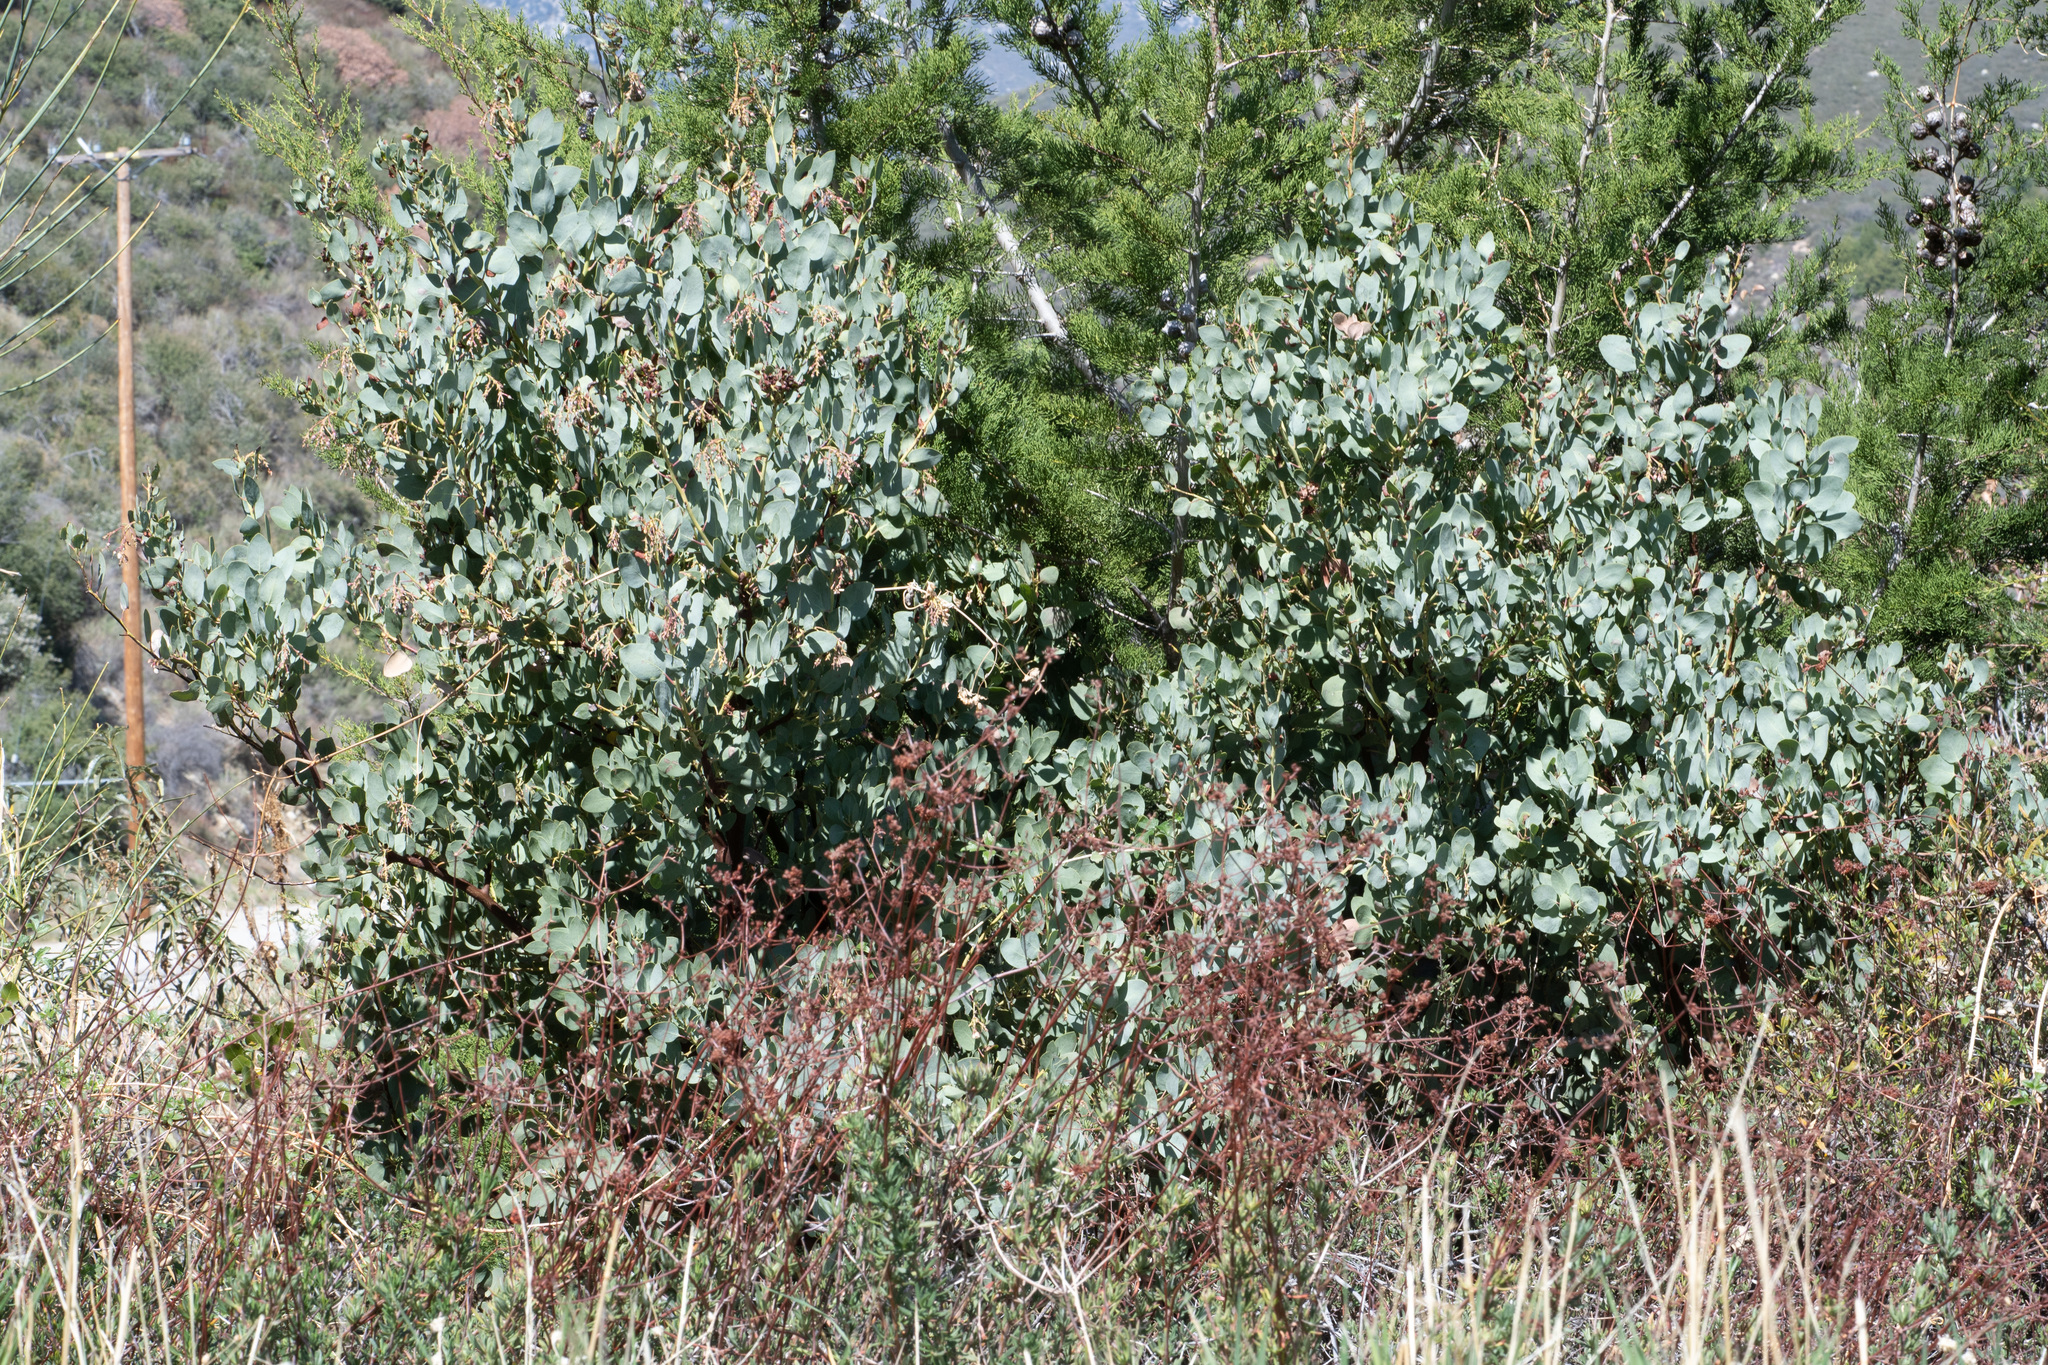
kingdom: Plantae
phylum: Tracheophyta
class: Magnoliopsida
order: Ericales
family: Ericaceae
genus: Arctostaphylos
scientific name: Arctostaphylos glauca
